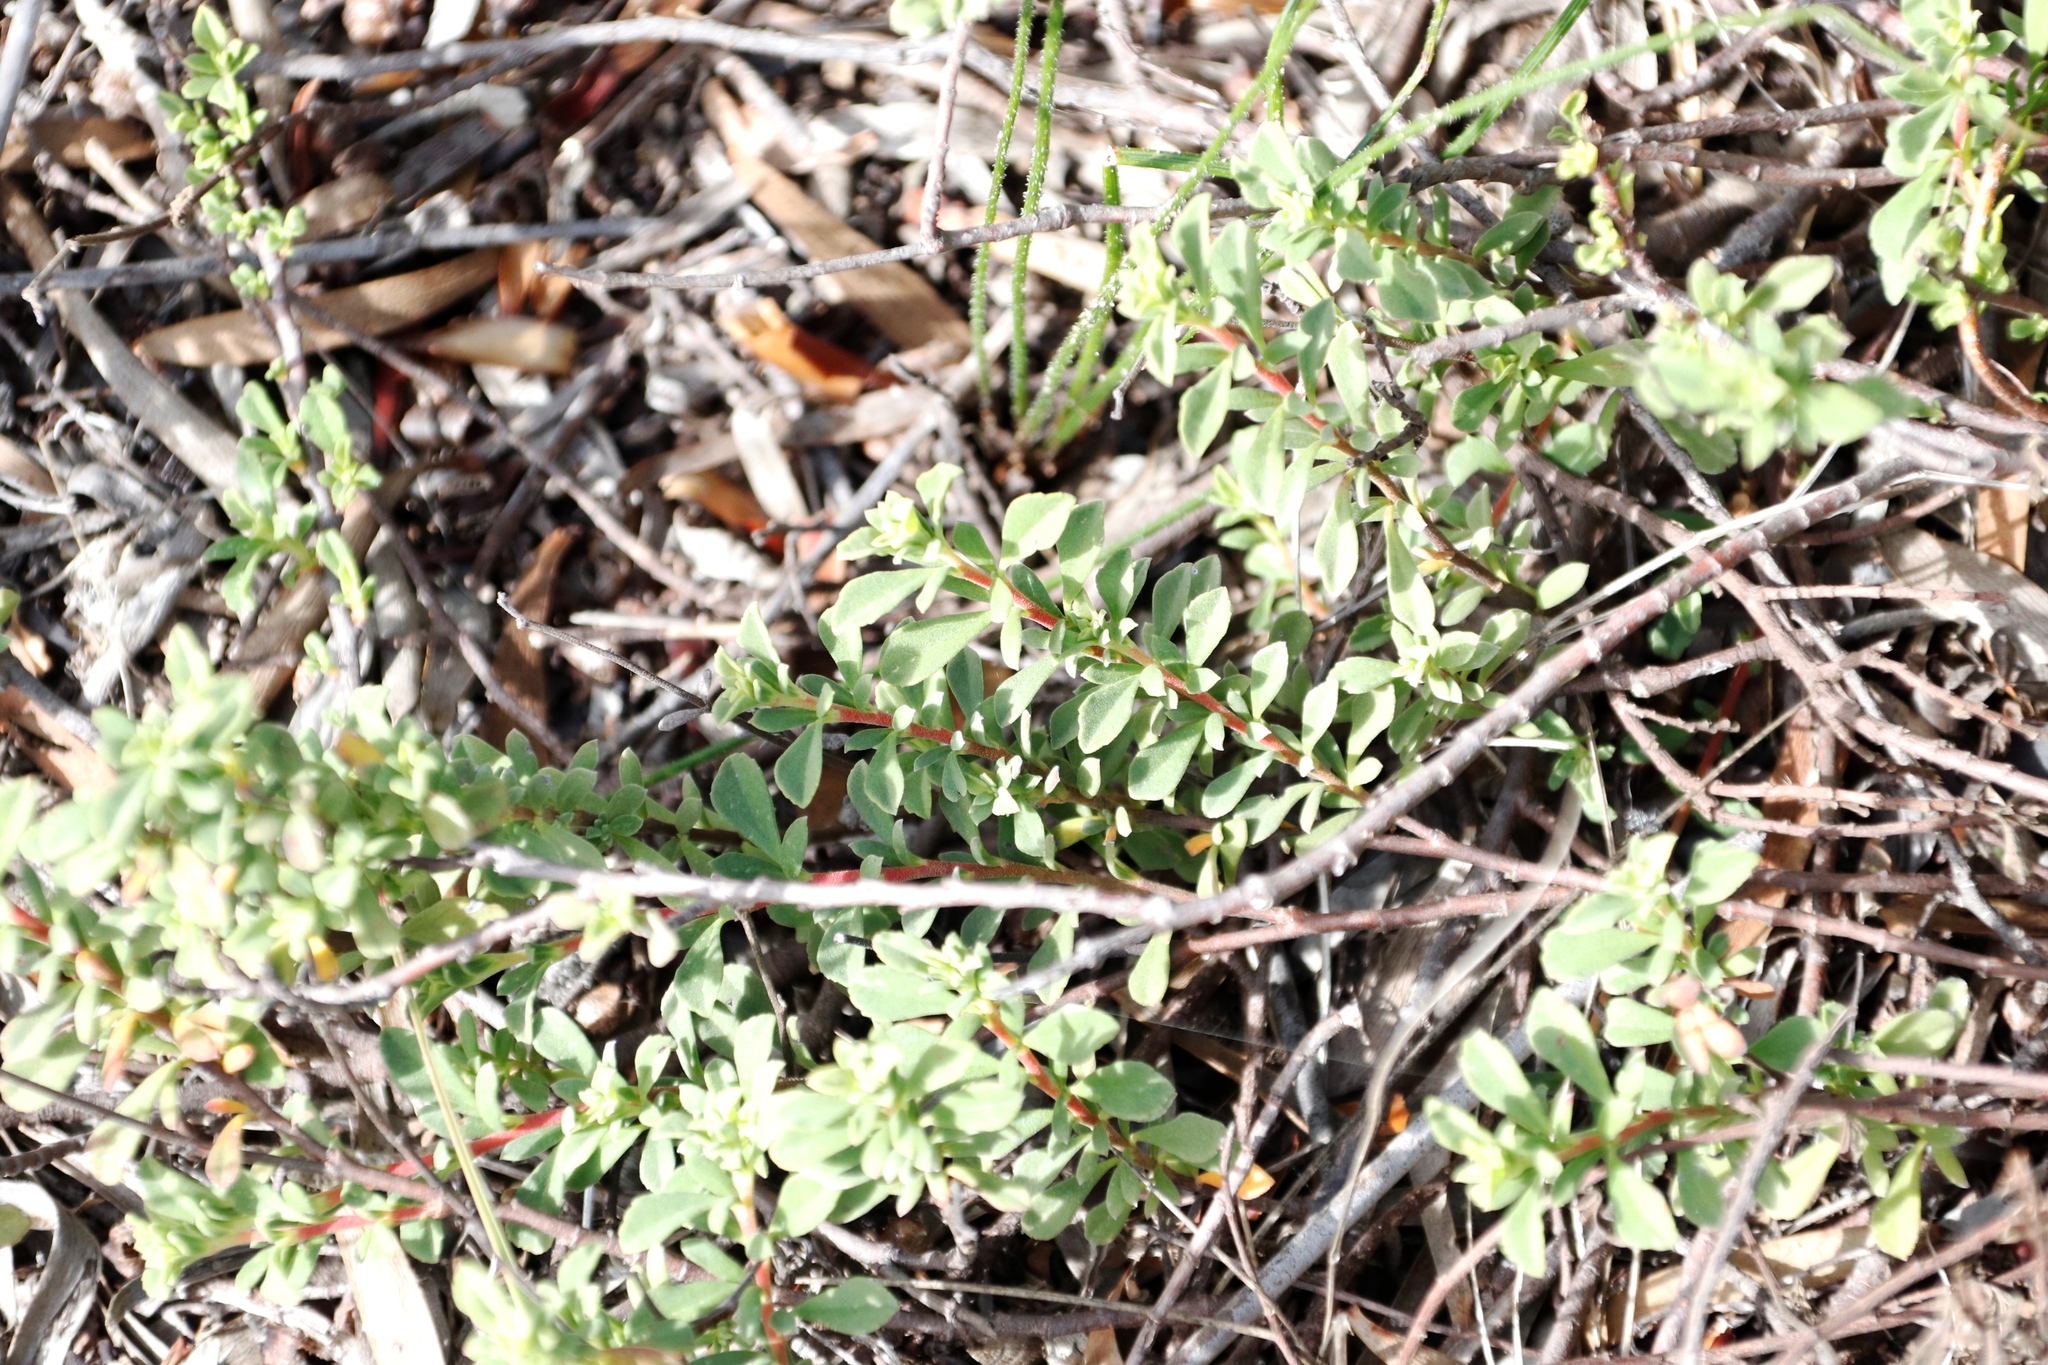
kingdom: Plantae
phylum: Tracheophyta
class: Magnoliopsida
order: Malvales
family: Malvaceae
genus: Hermannia
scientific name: Hermannia ternifolia
